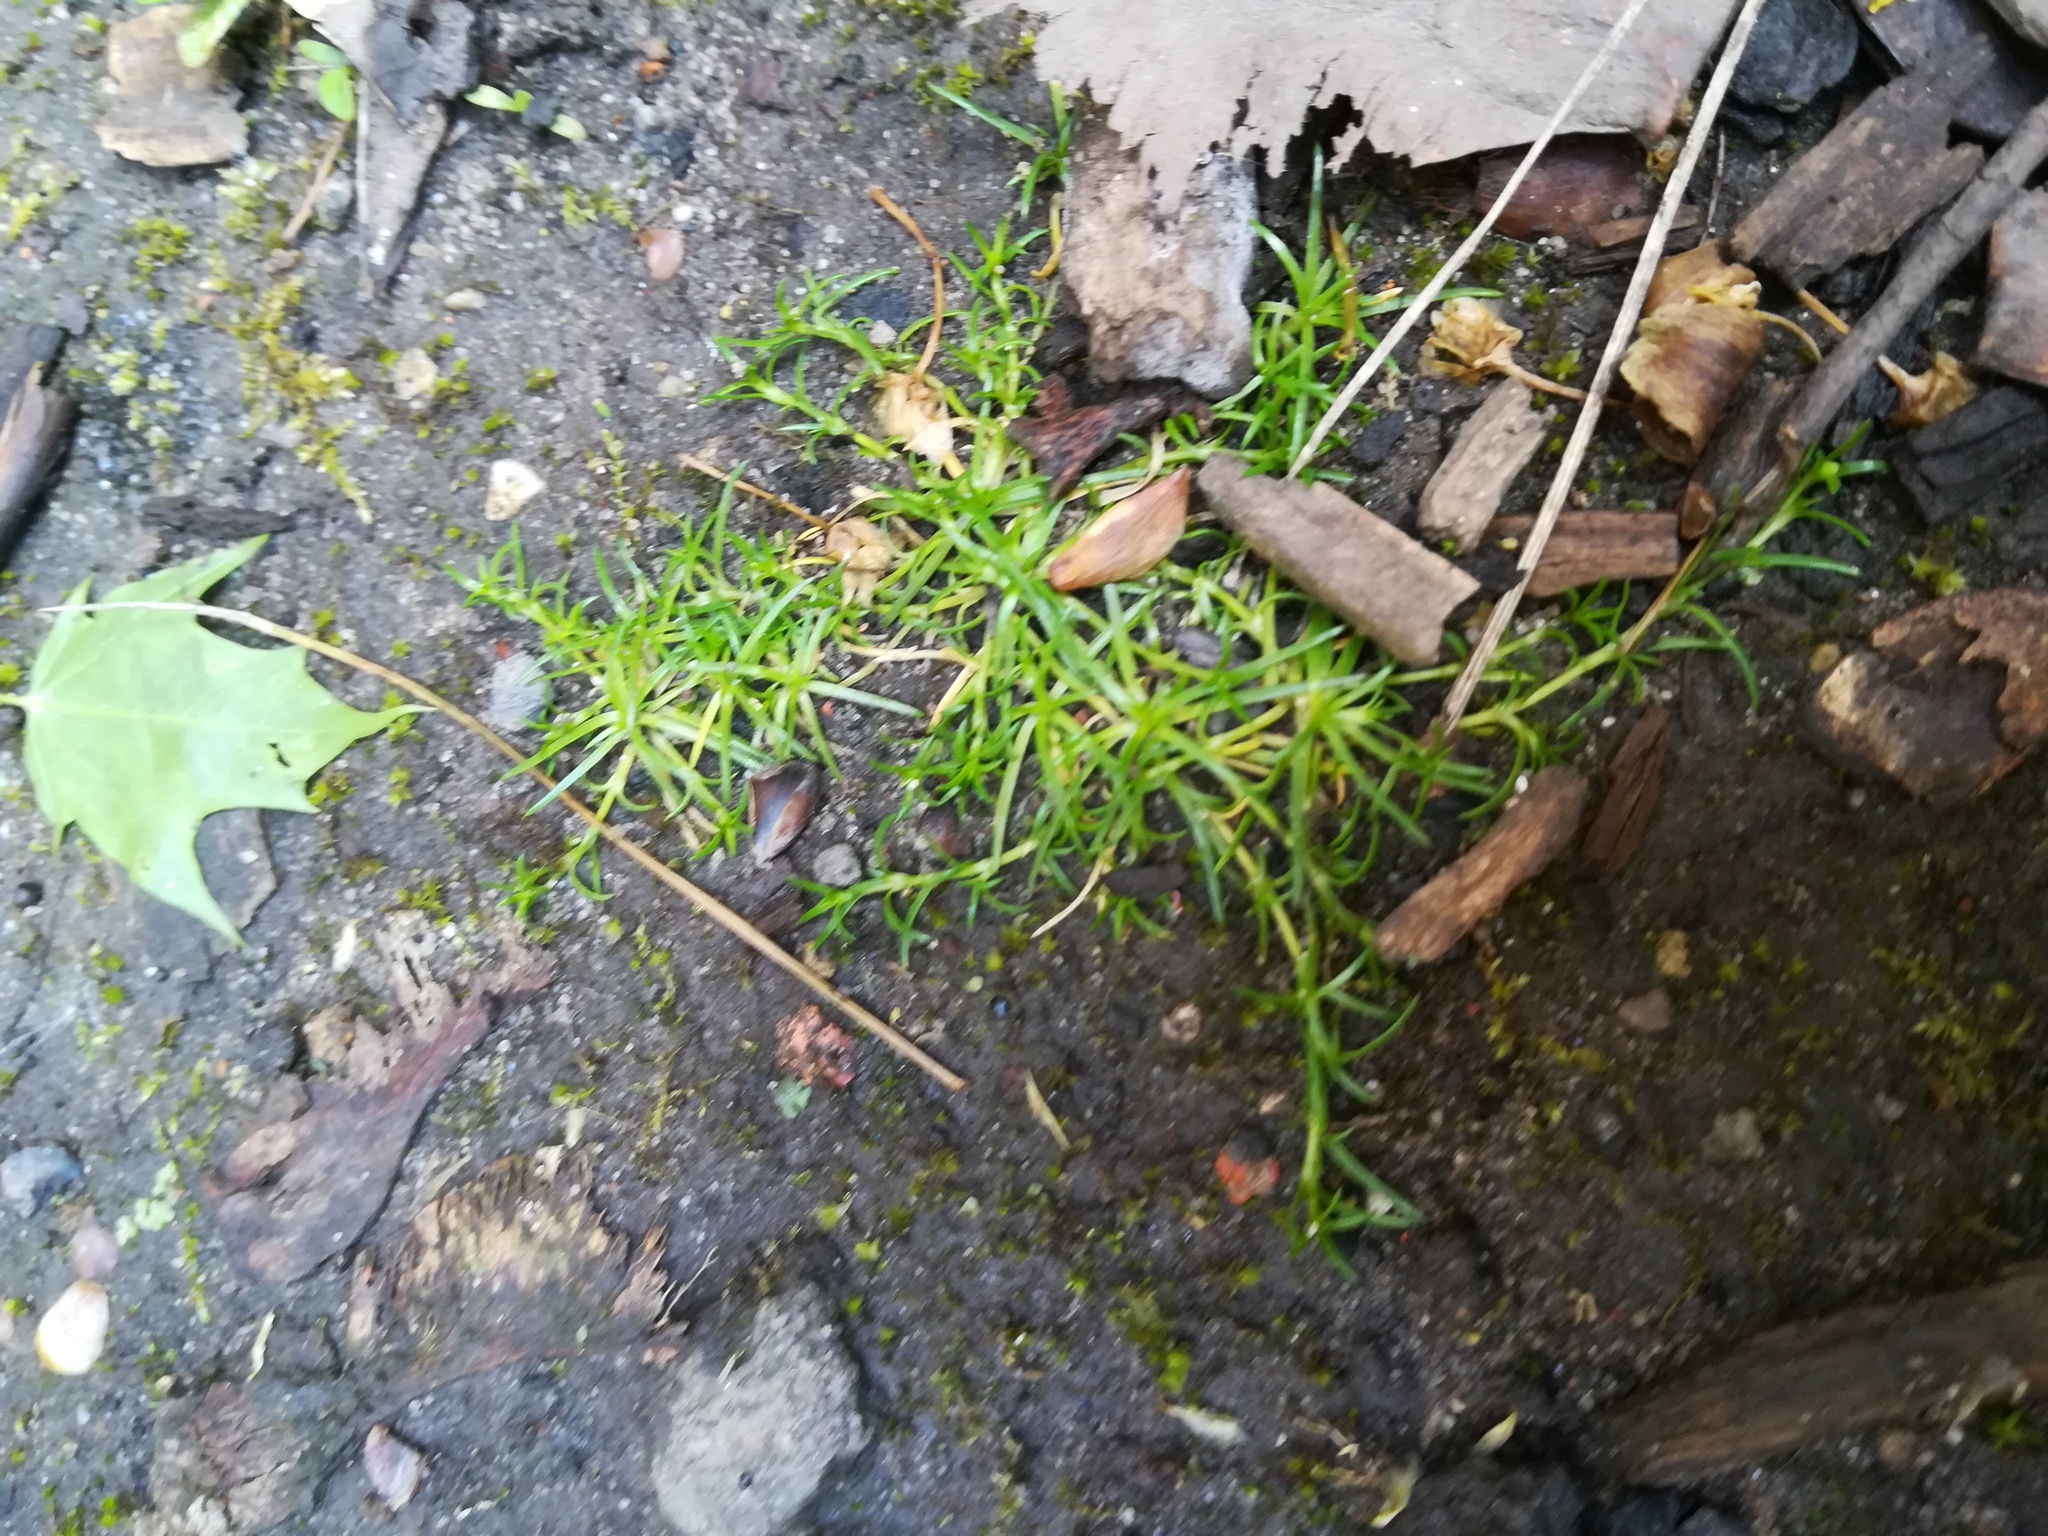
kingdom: Plantae
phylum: Tracheophyta
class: Magnoliopsida
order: Caryophyllales
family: Caryophyllaceae
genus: Sagina
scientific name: Sagina procumbens
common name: Procumbent pearlwort
